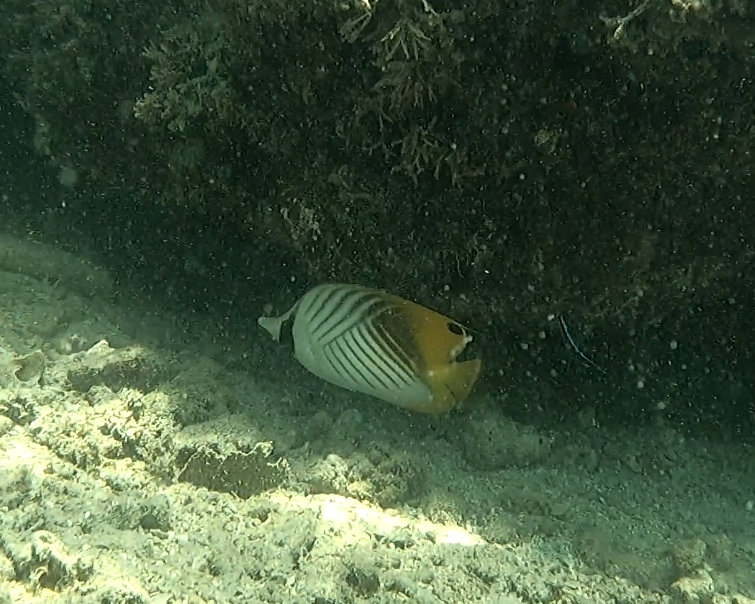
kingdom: Animalia
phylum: Chordata
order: Perciformes
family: Chaetodontidae
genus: Chaetodon
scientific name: Chaetodon auriga
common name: Threadfin butterflyfish
